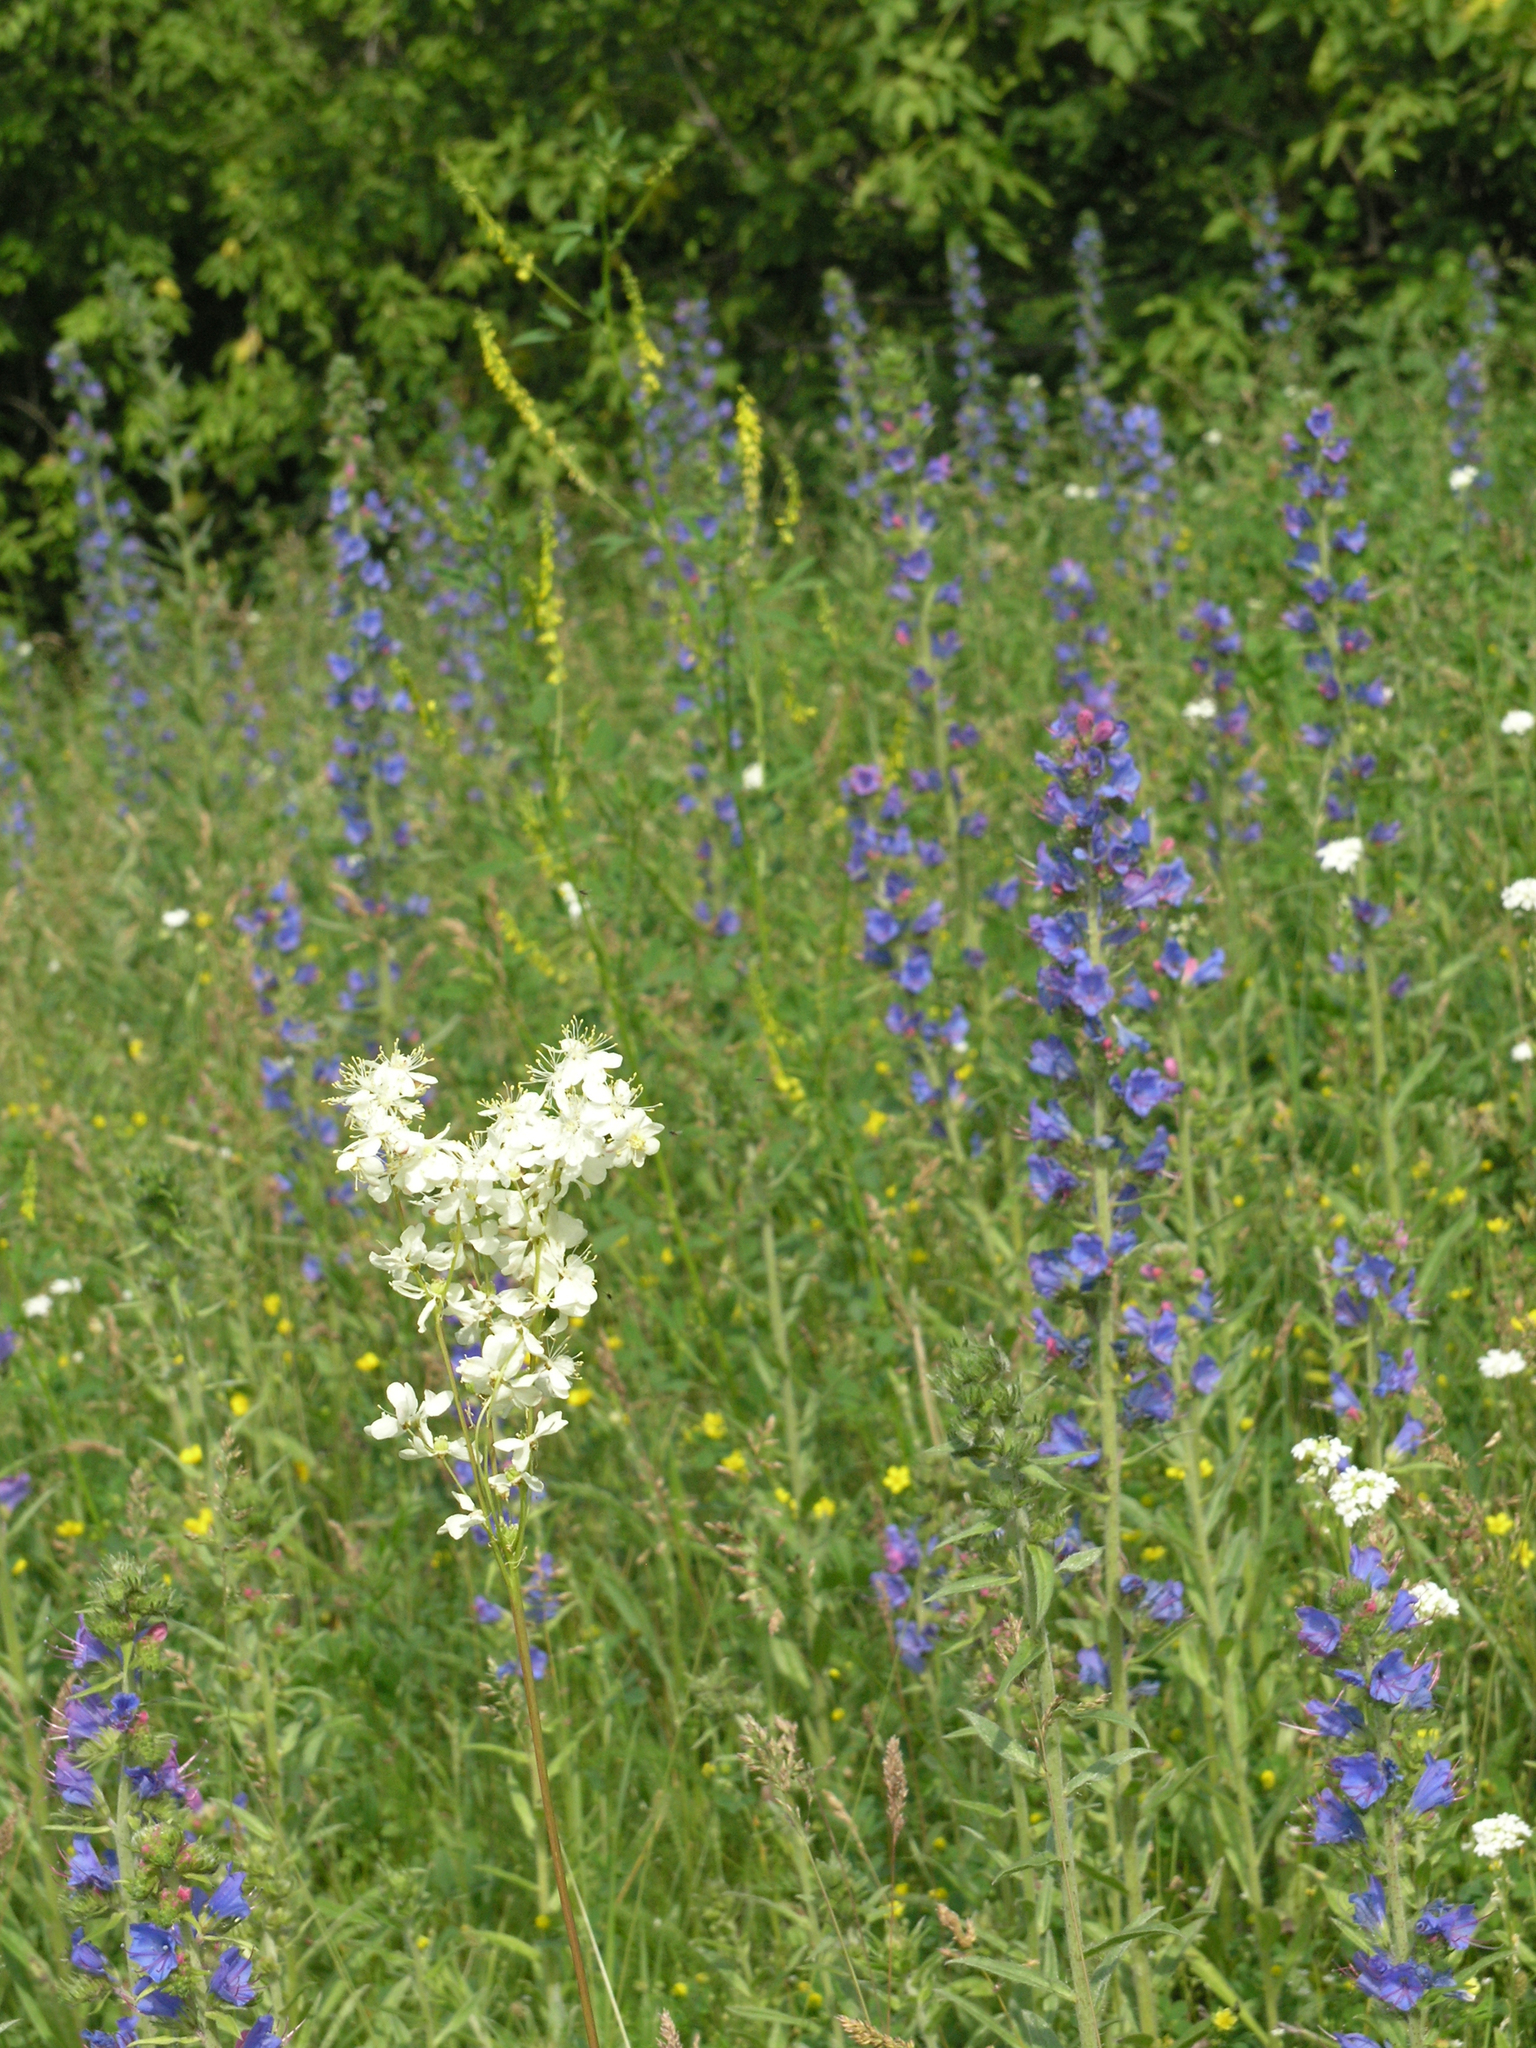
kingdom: Plantae
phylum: Tracheophyta
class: Magnoliopsida
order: Rosales
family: Rosaceae
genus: Filipendula
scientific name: Filipendula vulgaris
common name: Dropwort
